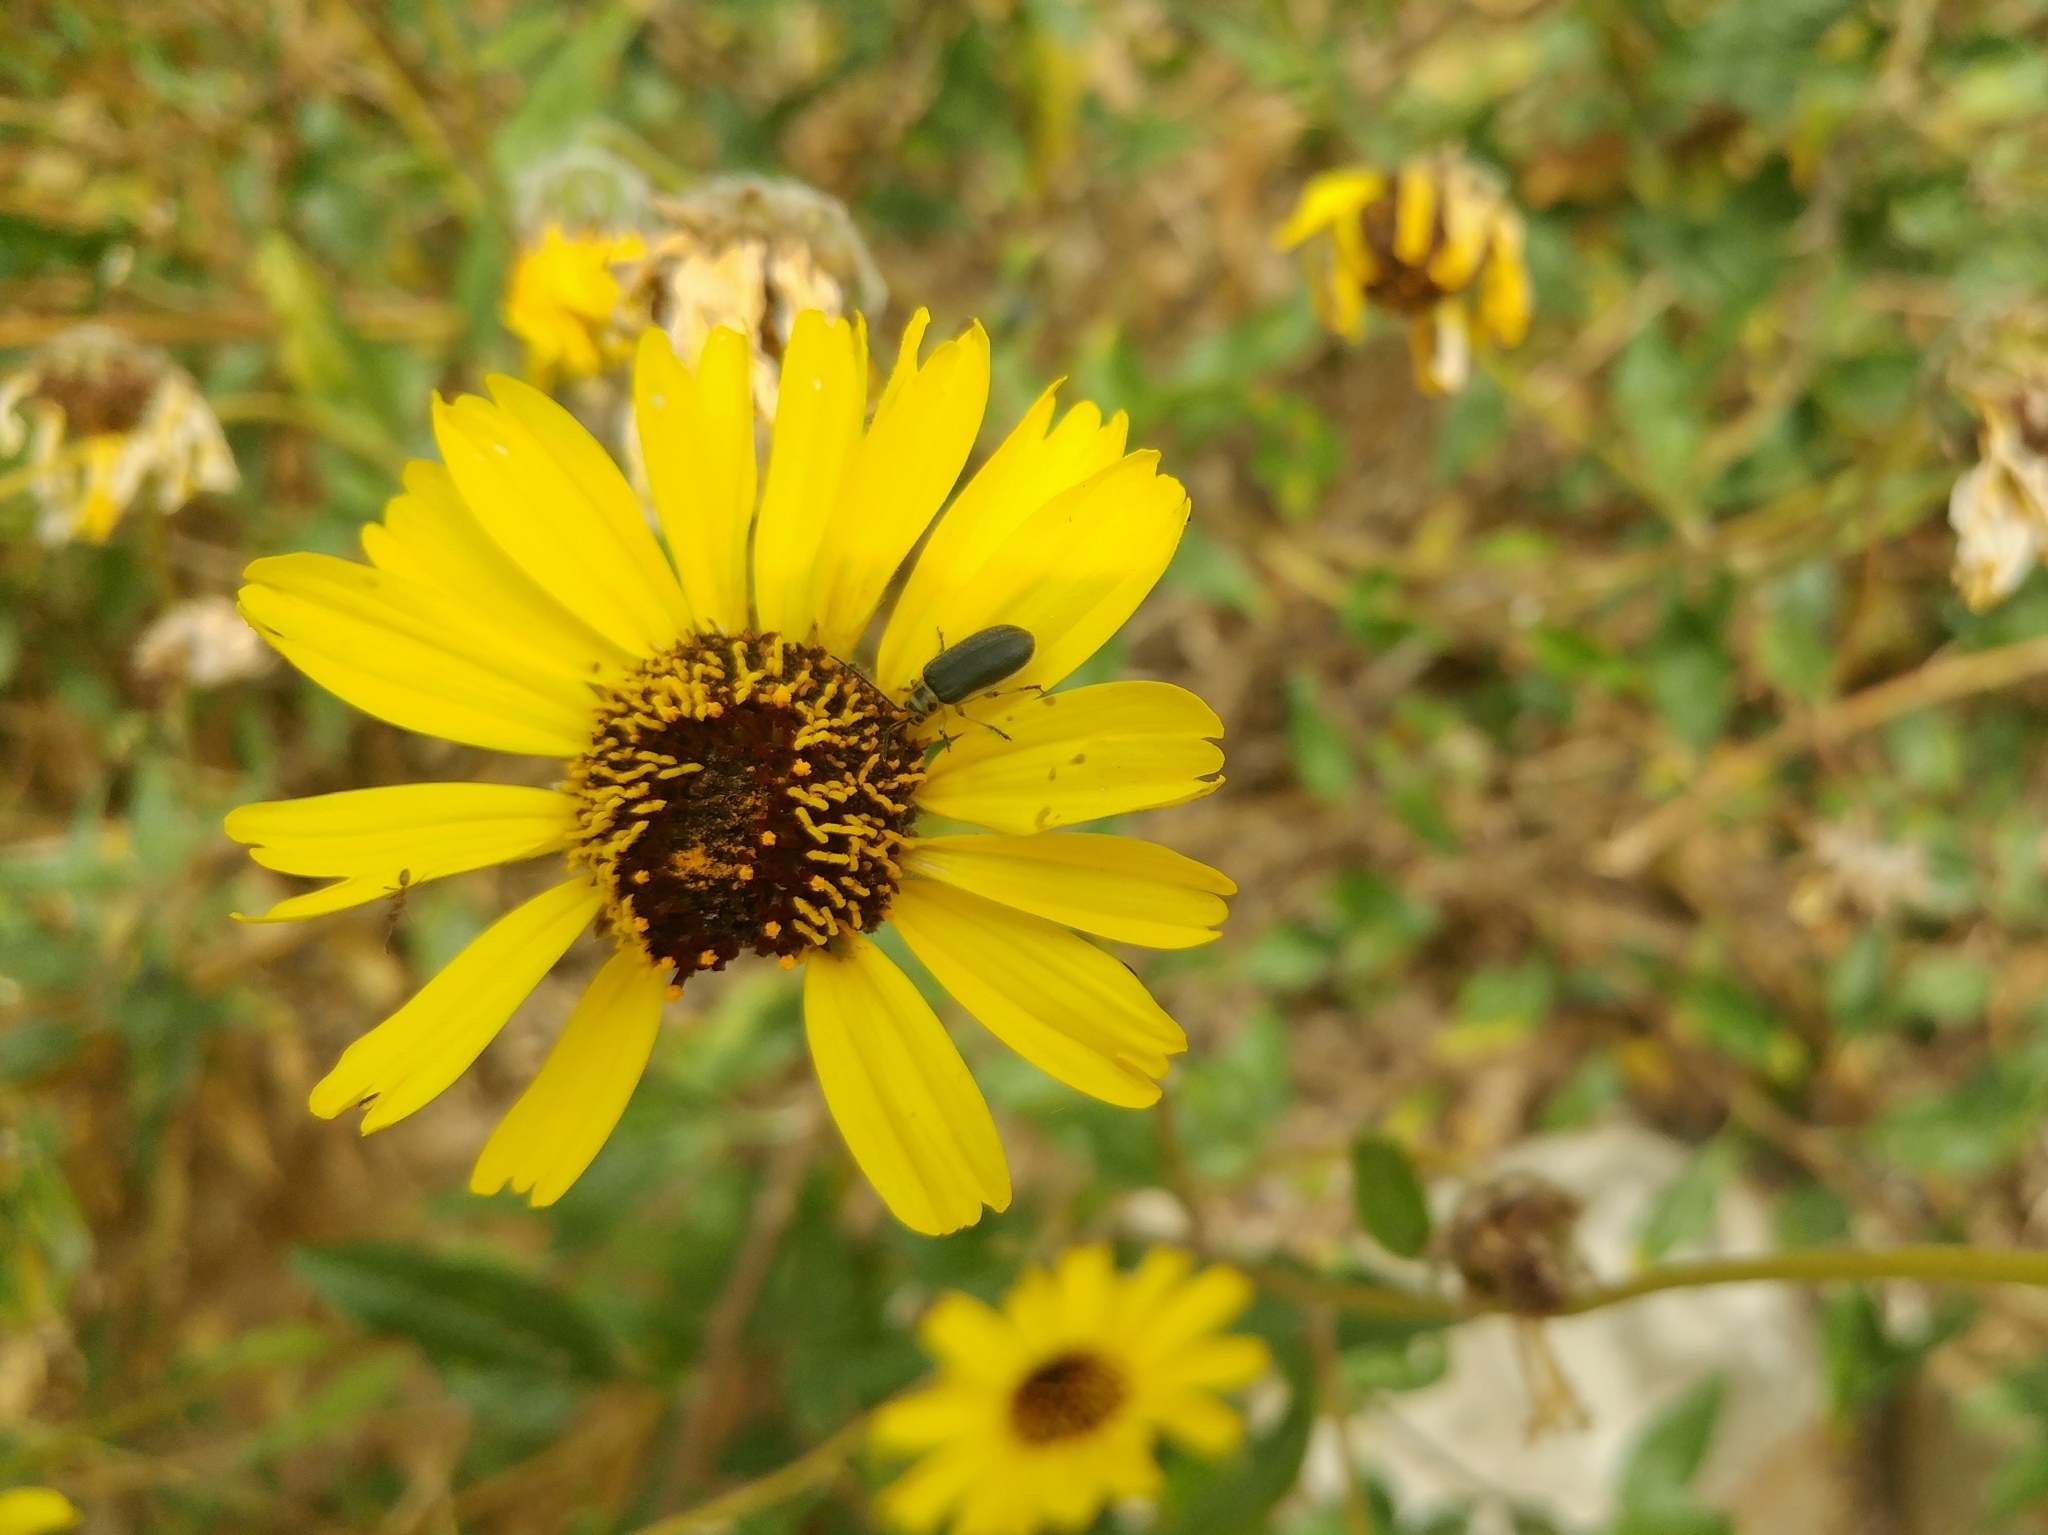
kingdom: Plantae
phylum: Tracheophyta
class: Magnoliopsida
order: Asterales
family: Asteraceae
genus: Encelia
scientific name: Encelia californica
